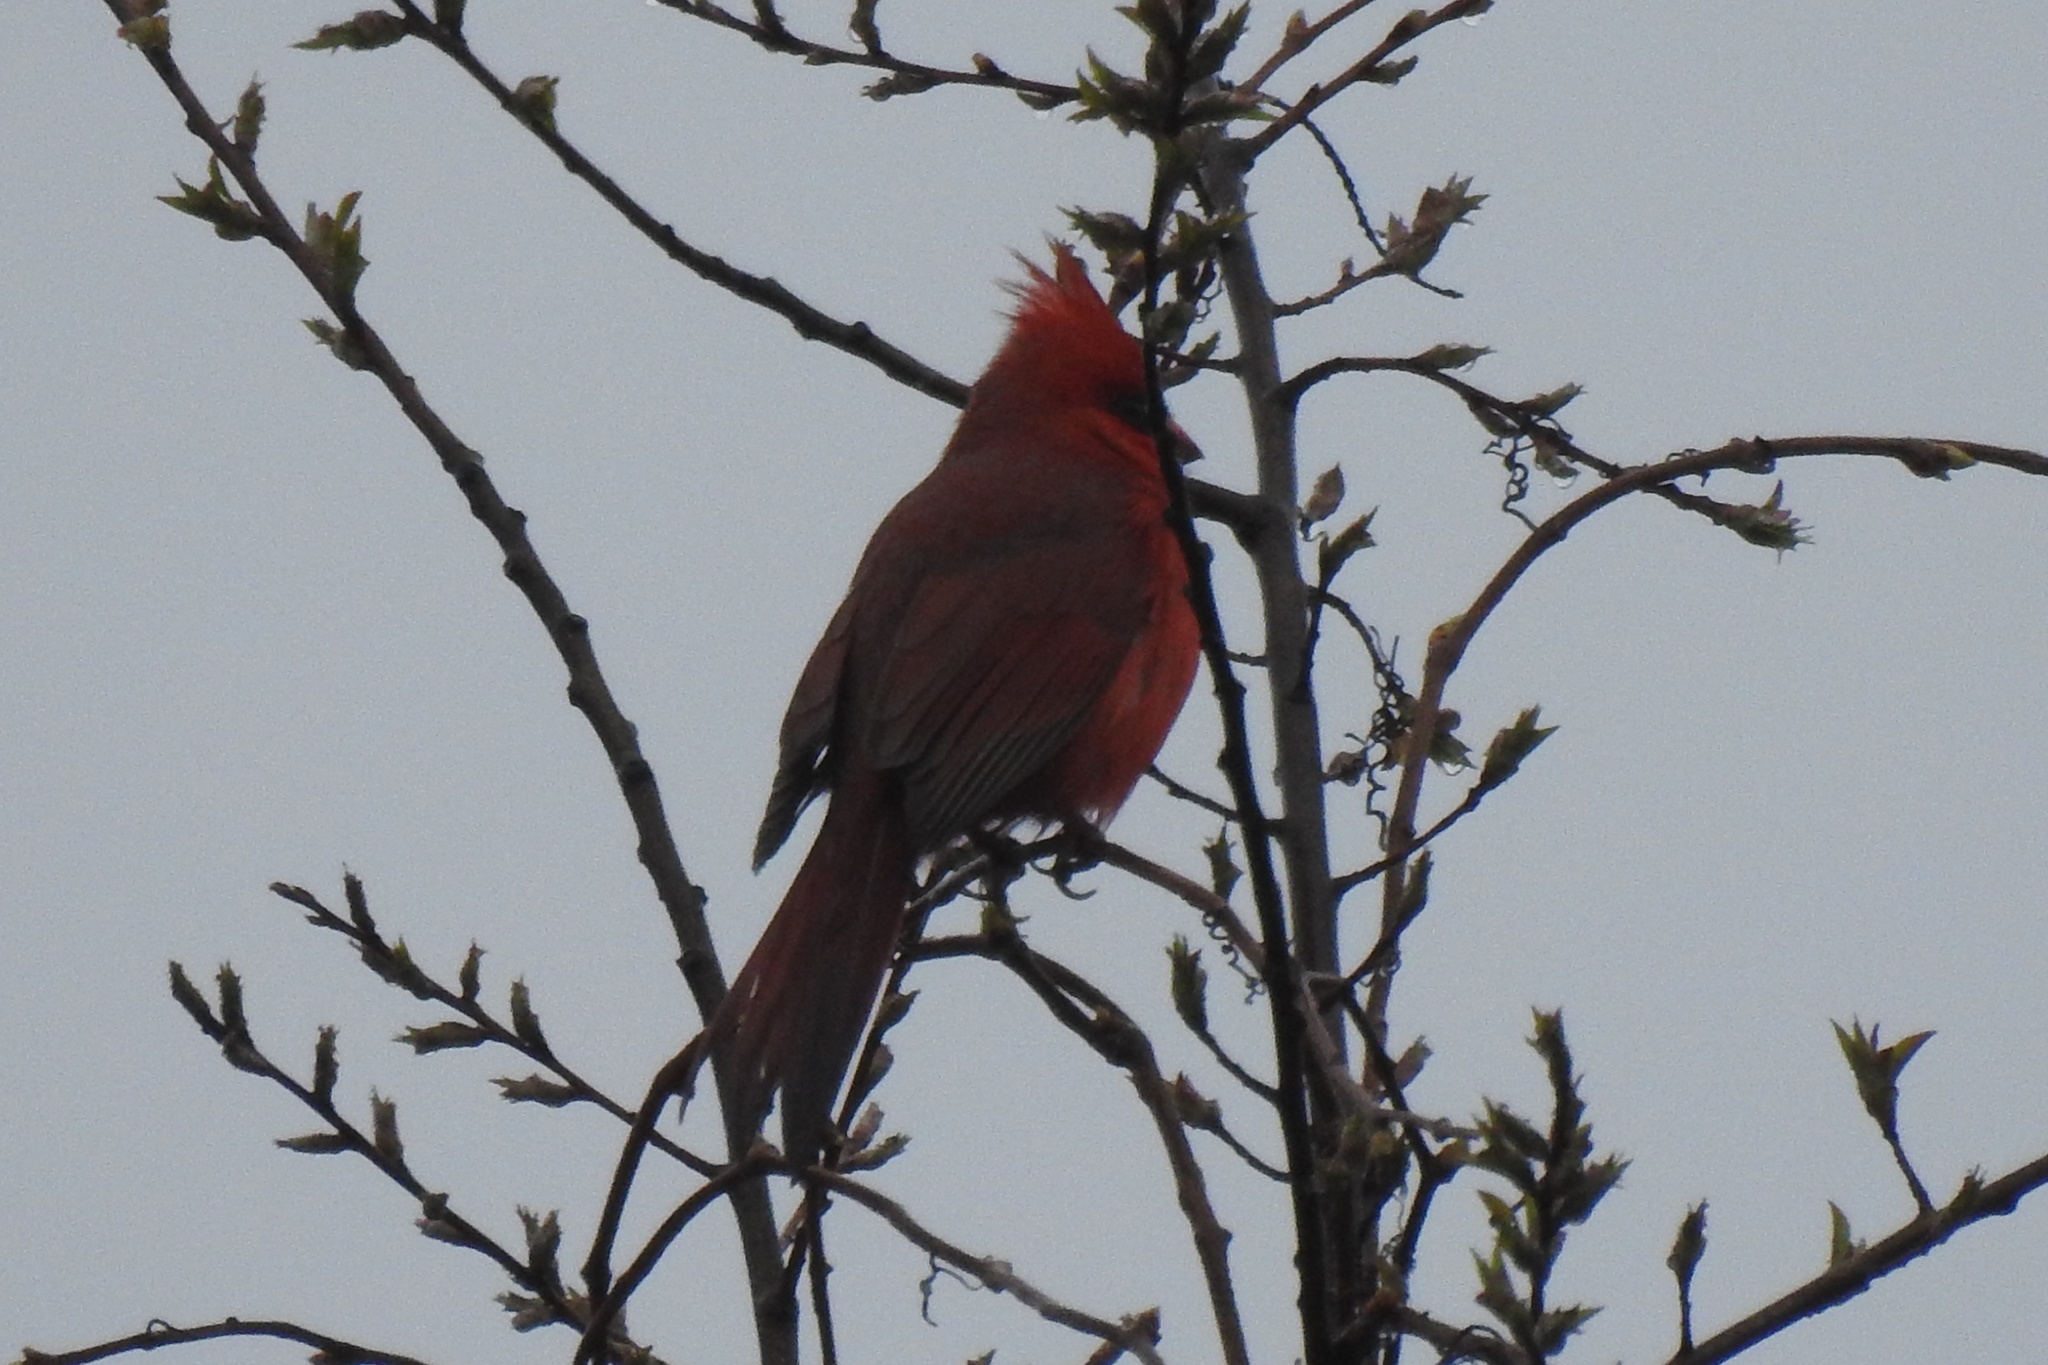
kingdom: Animalia
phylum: Chordata
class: Aves
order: Passeriformes
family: Cardinalidae
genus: Cardinalis
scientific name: Cardinalis cardinalis
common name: Northern cardinal
